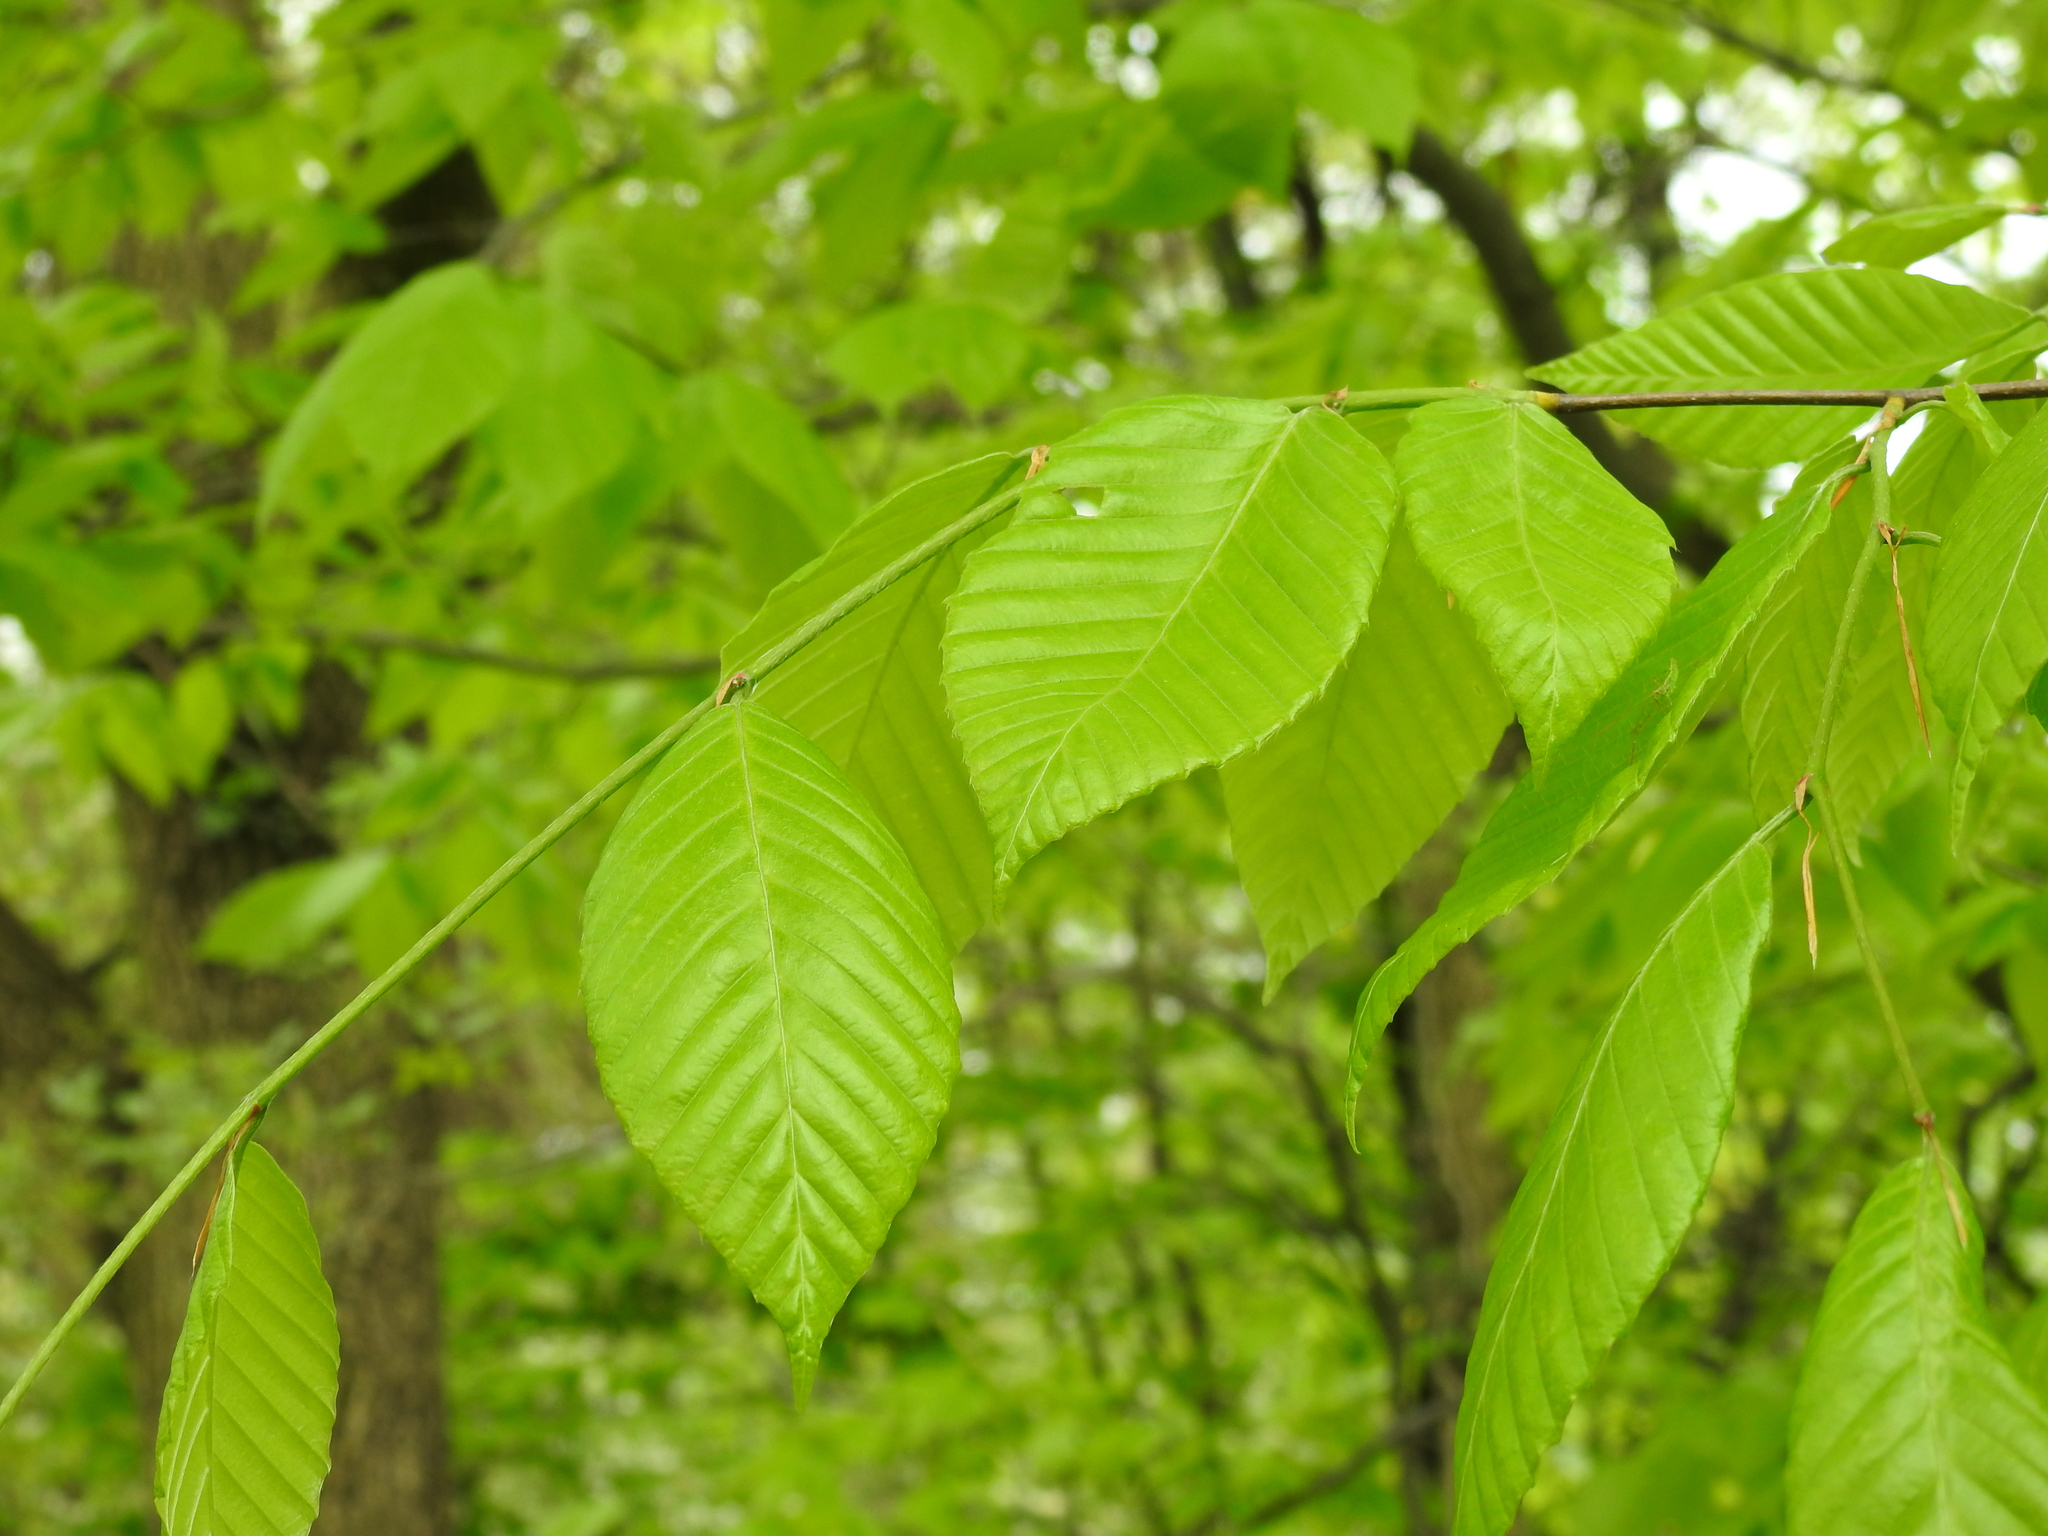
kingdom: Plantae
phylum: Tracheophyta
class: Magnoliopsida
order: Fagales
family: Fagaceae
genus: Fagus
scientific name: Fagus grandifolia
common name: American beech
